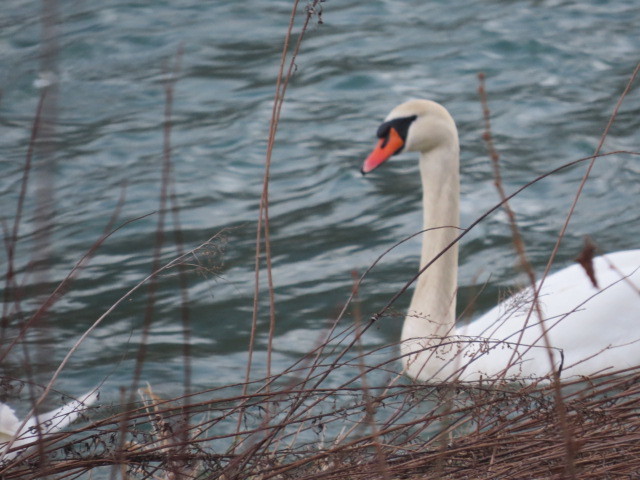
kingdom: Animalia
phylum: Chordata
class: Aves
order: Anseriformes
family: Anatidae
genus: Cygnus
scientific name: Cygnus olor
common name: Mute swan
